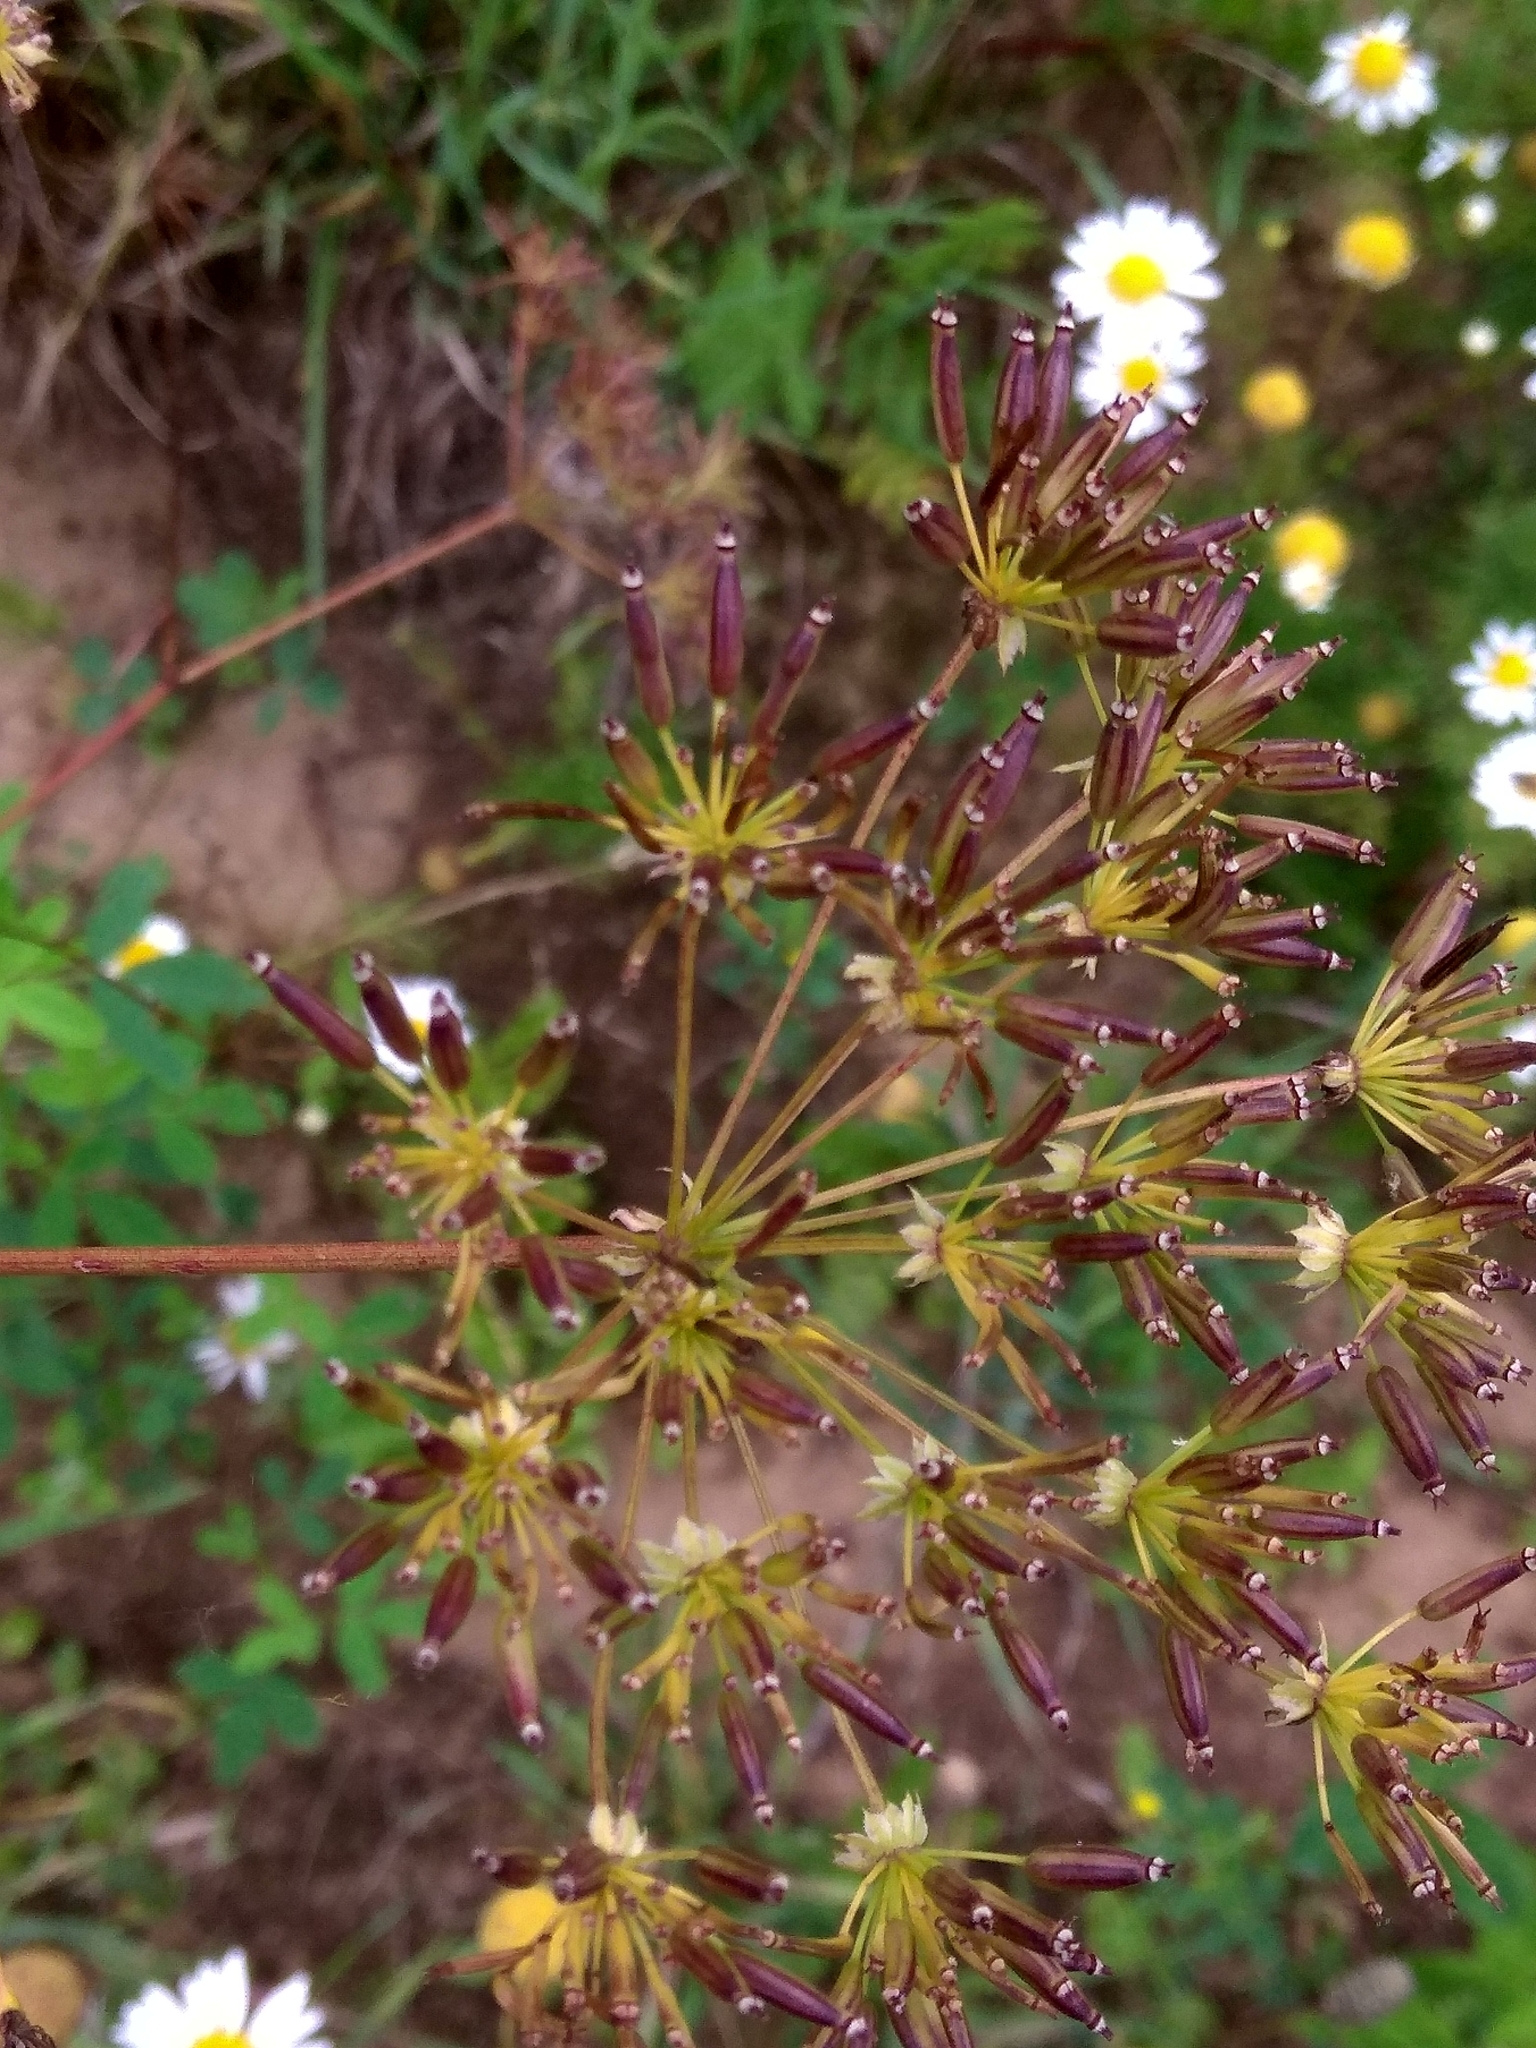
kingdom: Plantae
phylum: Tracheophyta
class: Magnoliopsida
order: Apiales
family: Apiaceae
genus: Chaerophyllum
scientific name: Chaerophyllum prescottii
